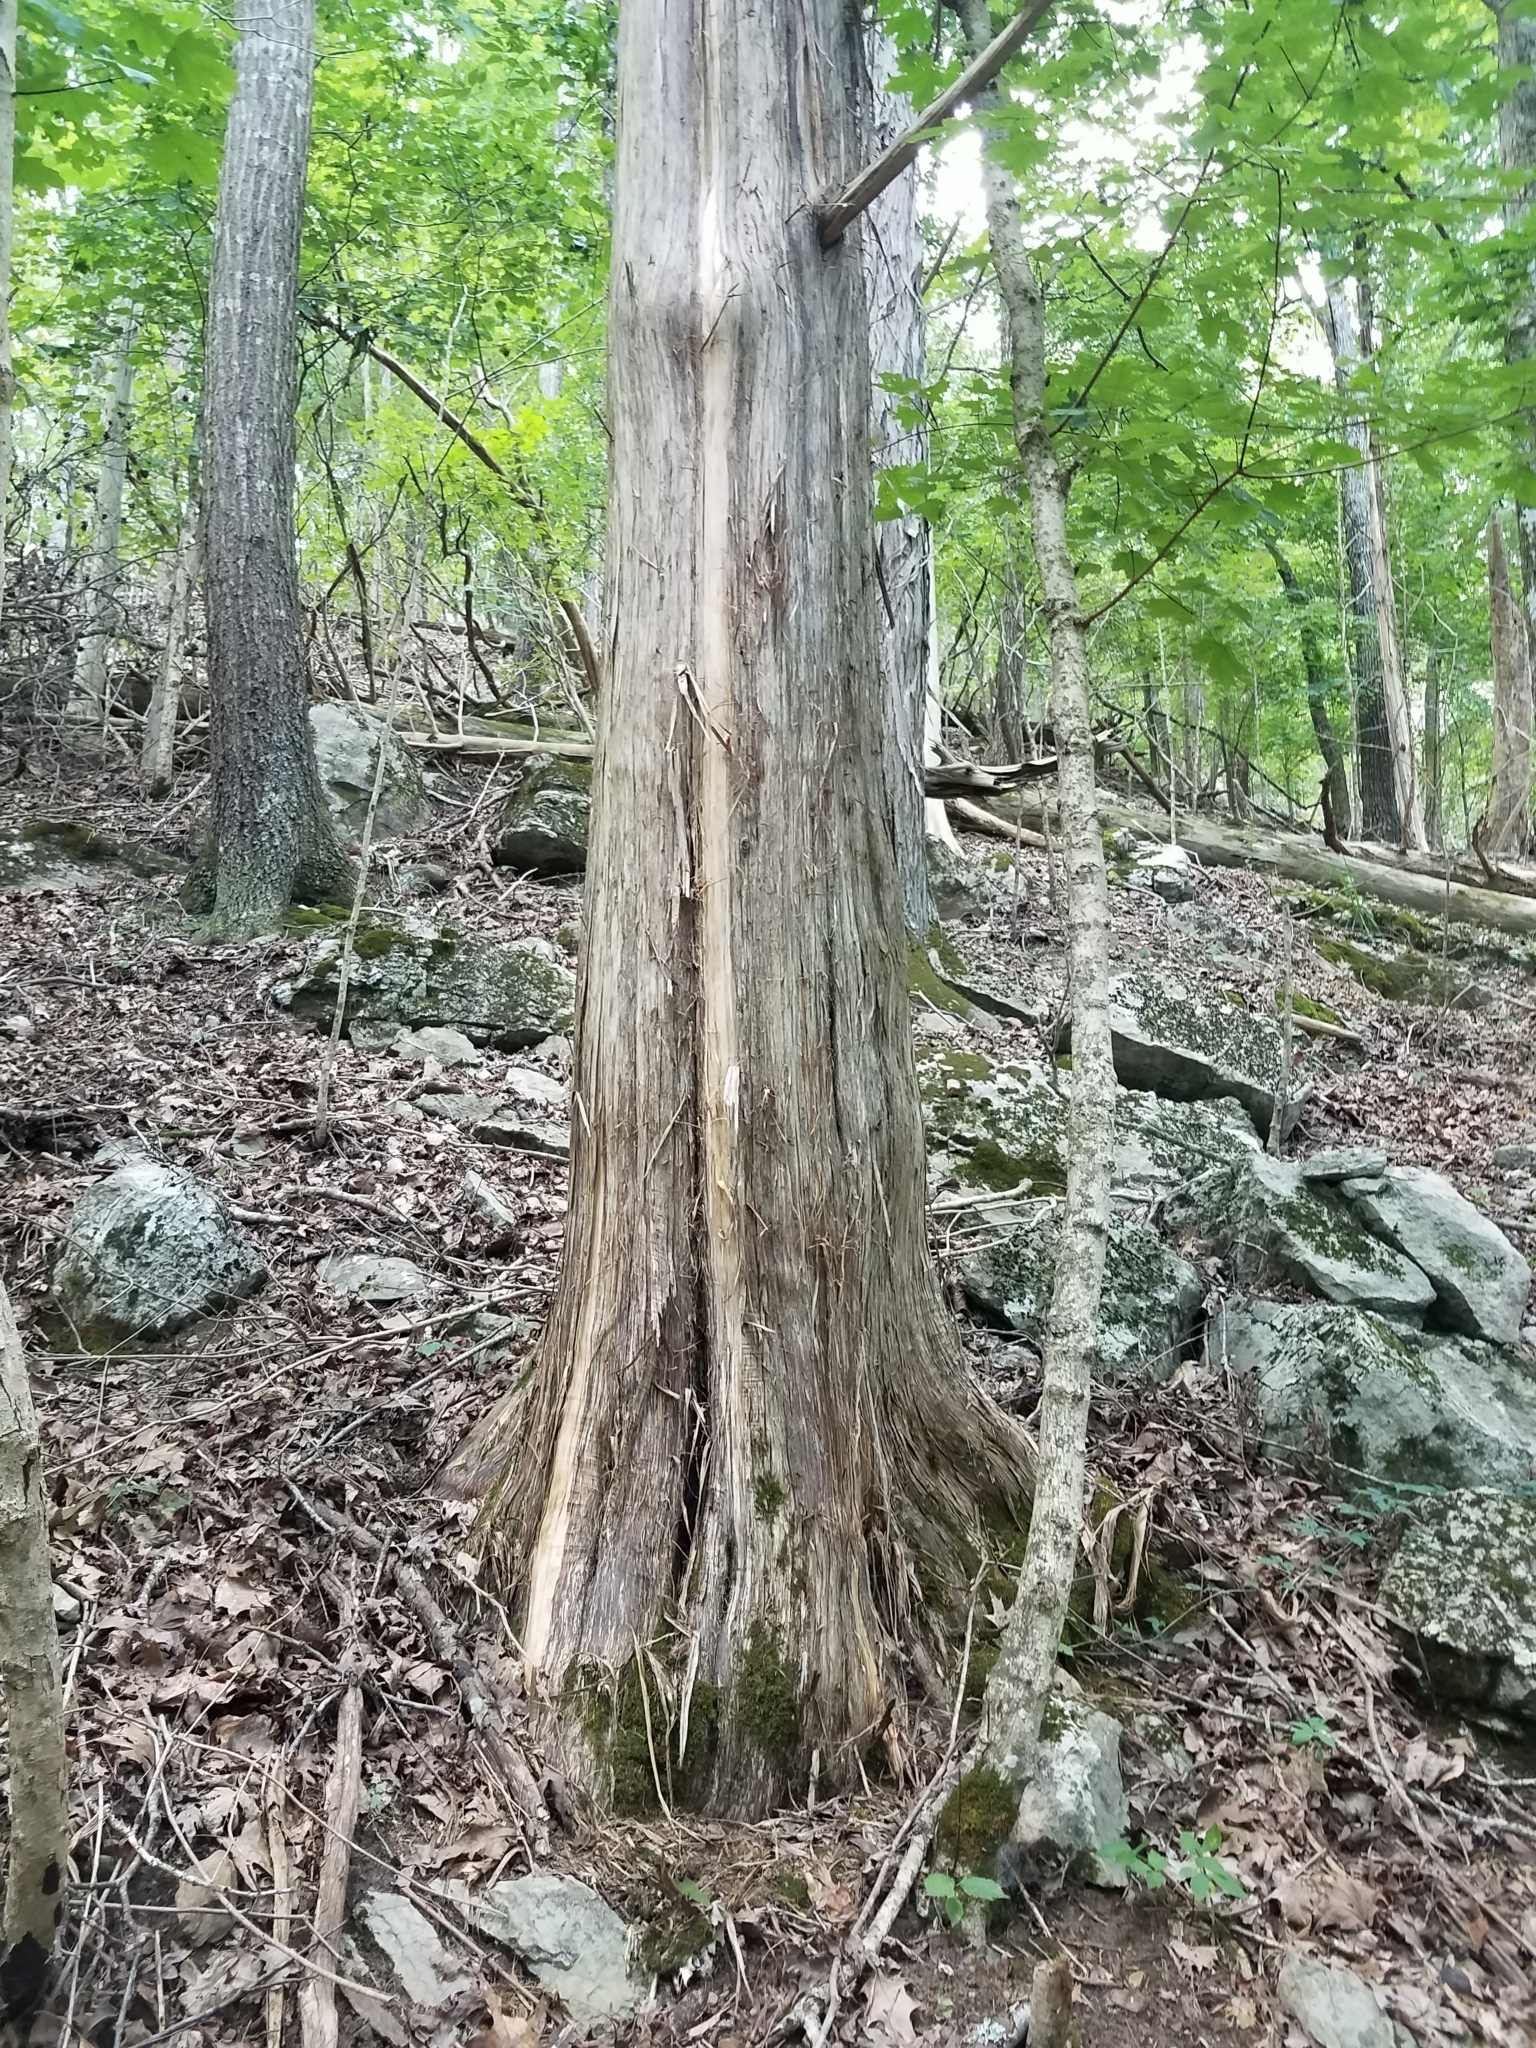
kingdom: Plantae
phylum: Tracheophyta
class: Pinopsida
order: Pinales
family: Cupressaceae
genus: Juniperus
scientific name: Juniperus virginiana
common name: Red juniper
